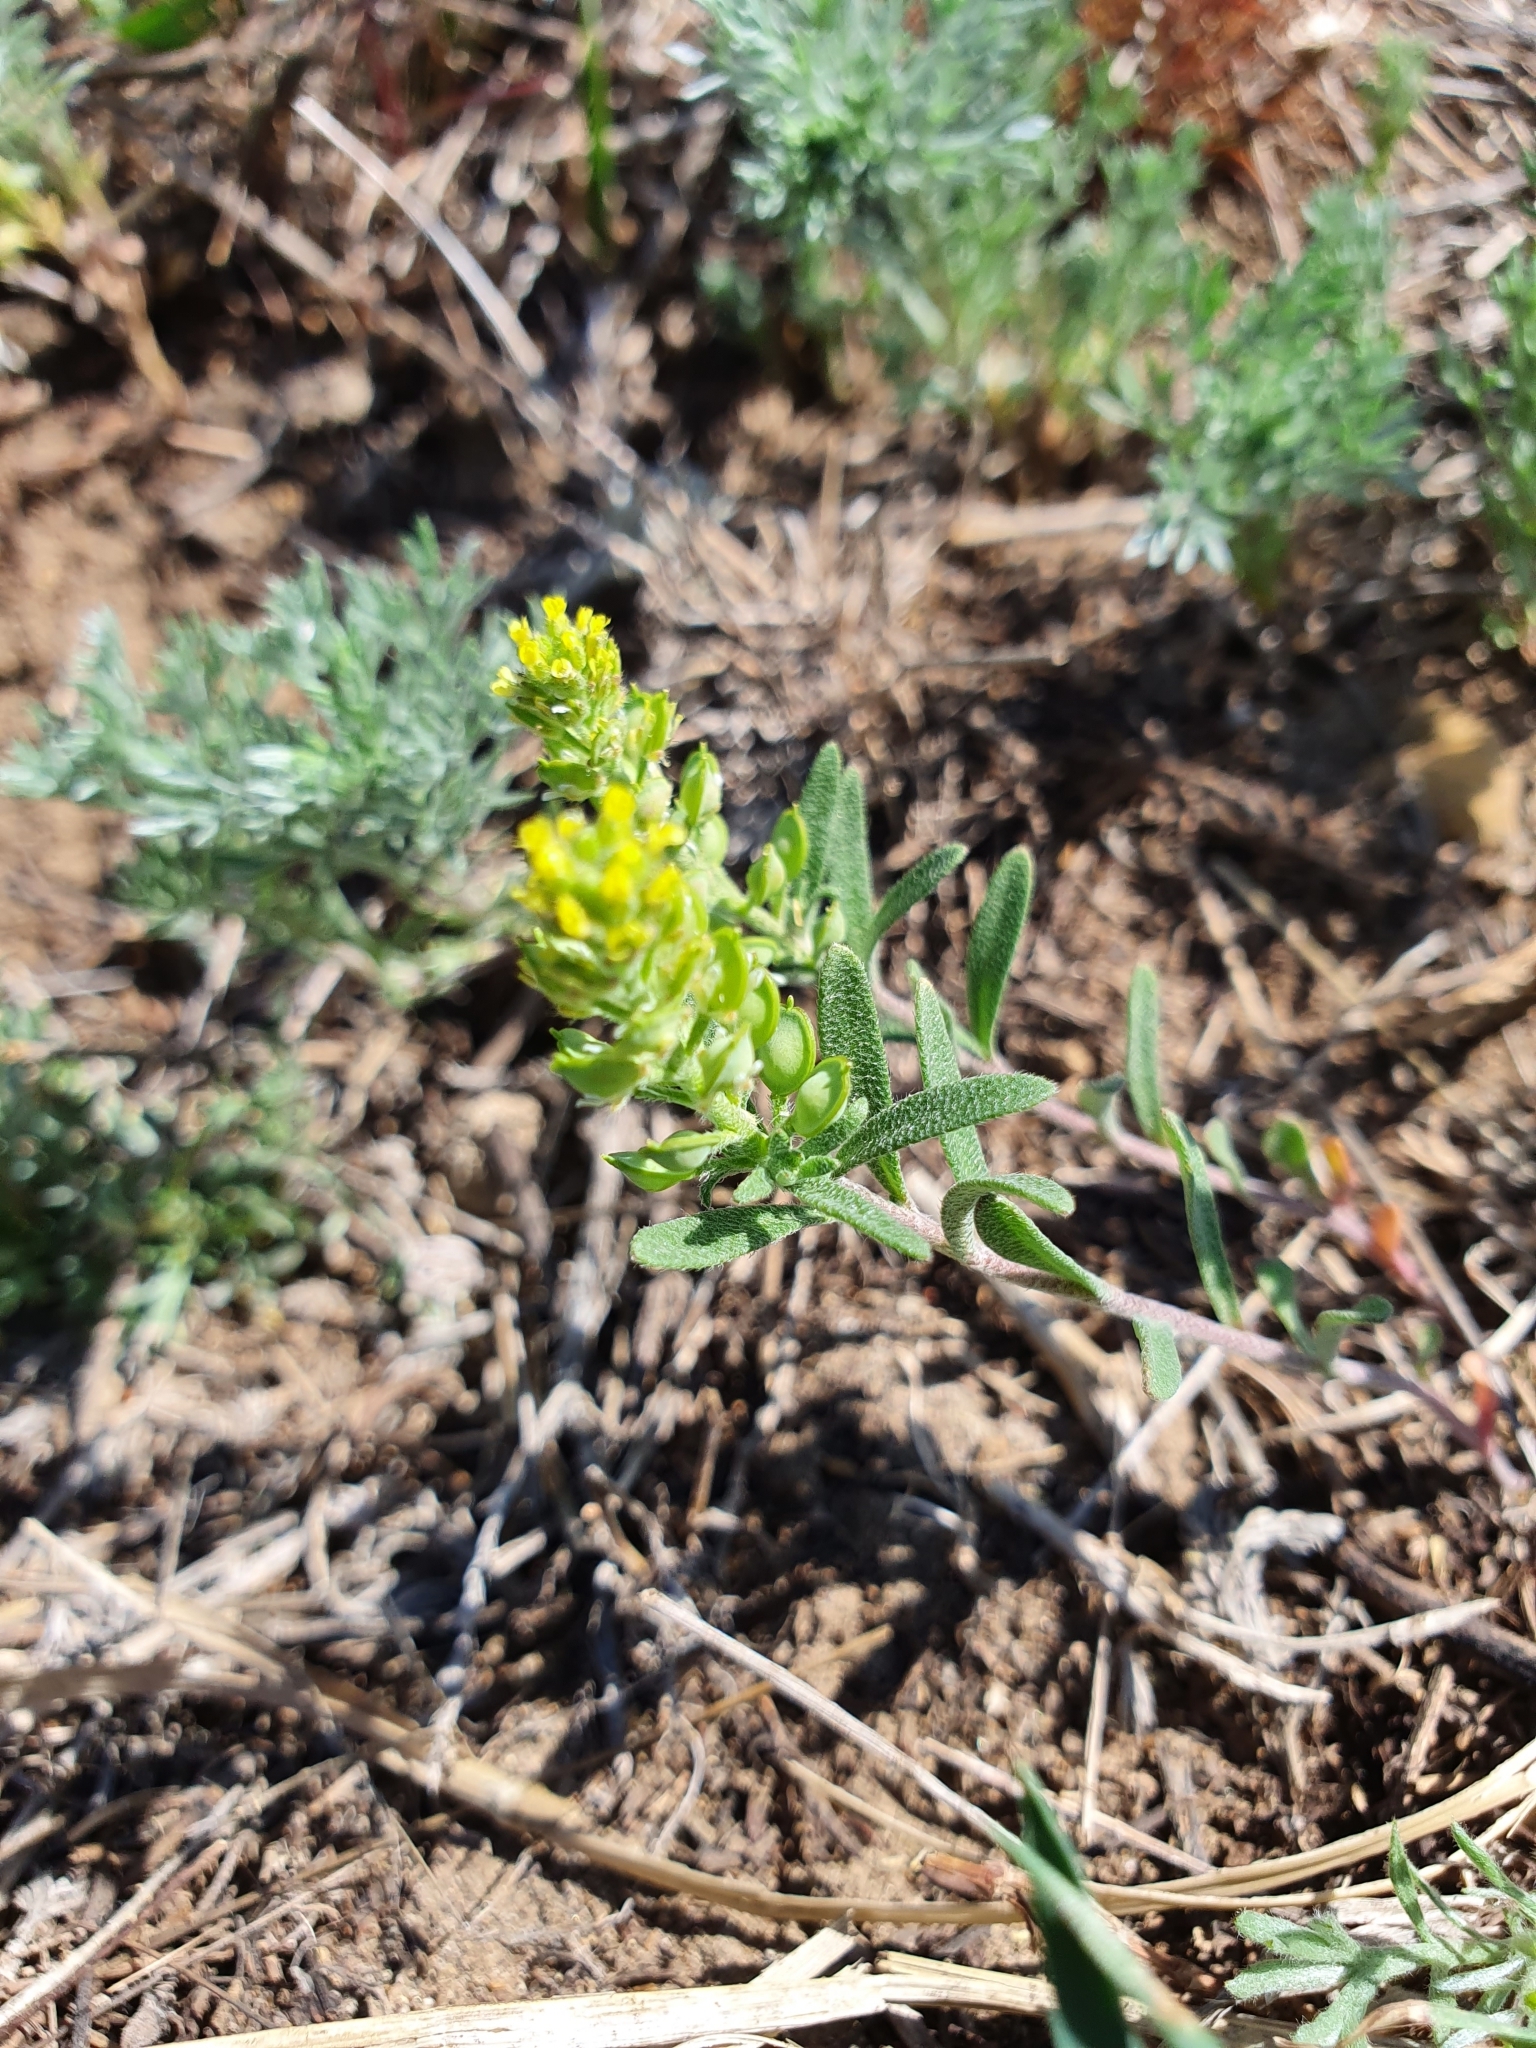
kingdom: Plantae
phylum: Tracheophyta
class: Magnoliopsida
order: Brassicales
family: Brassicaceae
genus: Alyssum
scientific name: Alyssum turkestanicum
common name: Desert alyssum
